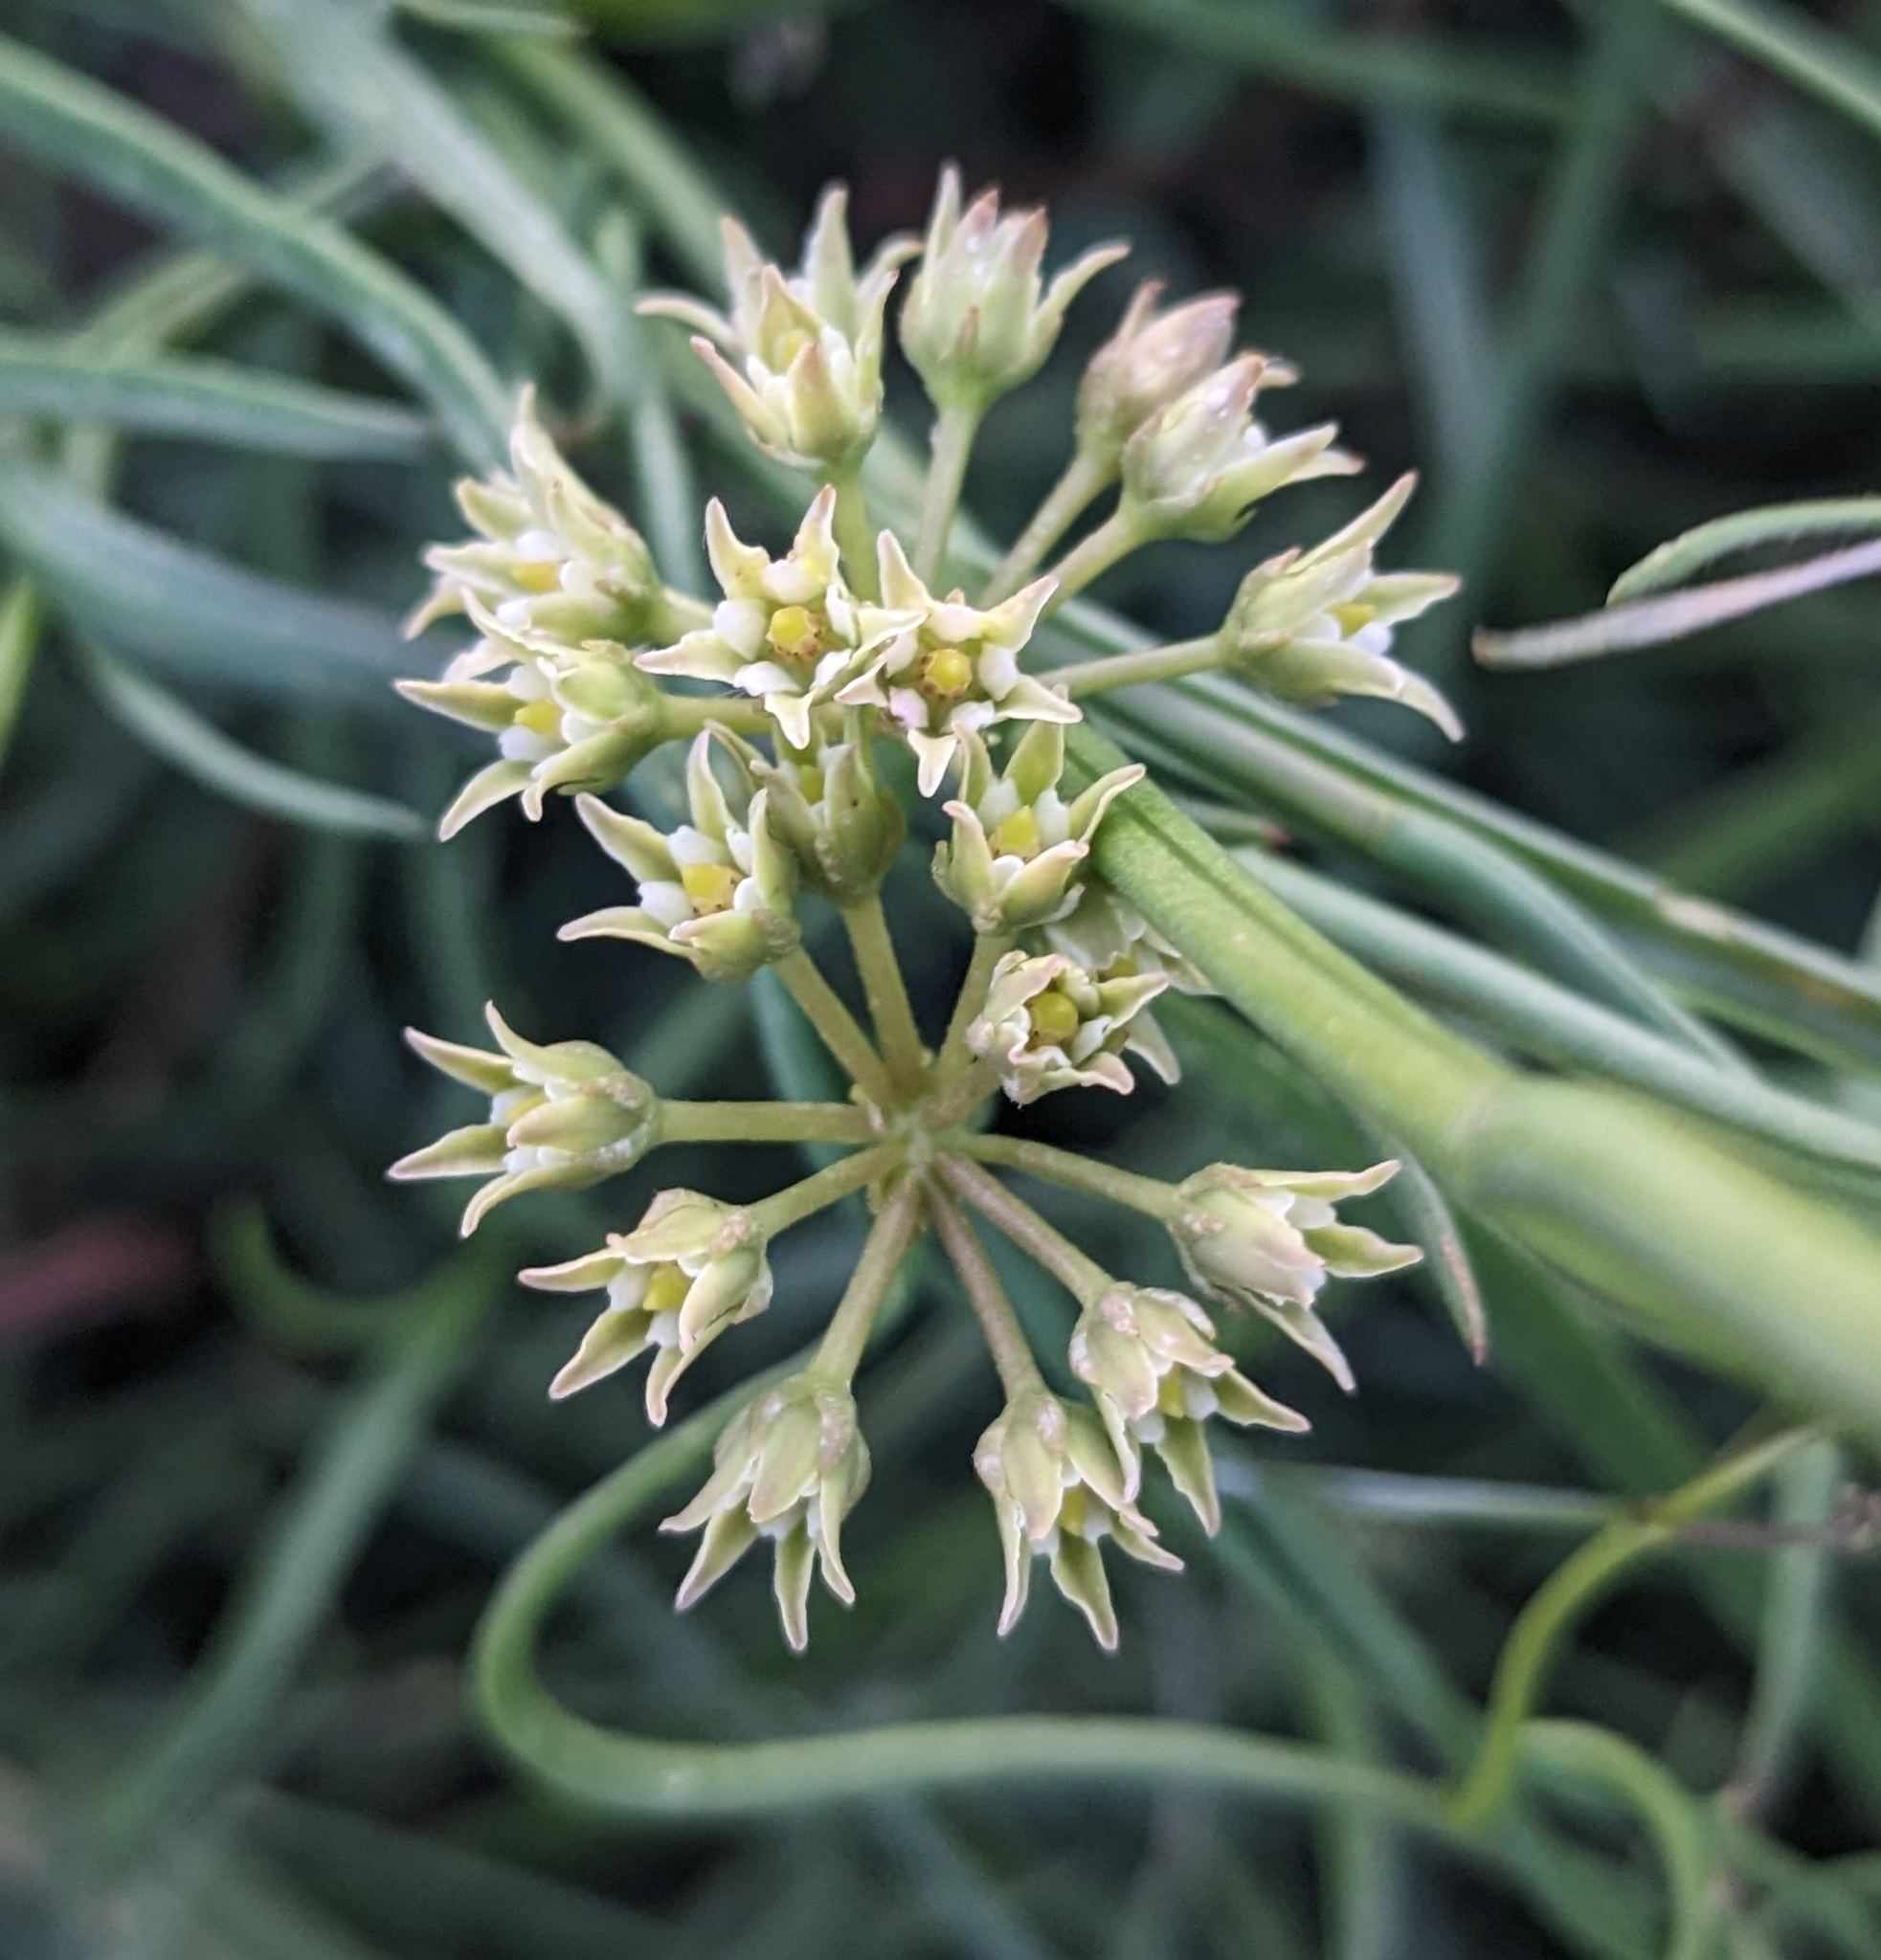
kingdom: Plantae
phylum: Tracheophyta
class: Magnoliopsida
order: Gentianales
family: Apocynaceae
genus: Pattalias
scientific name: Pattalias
